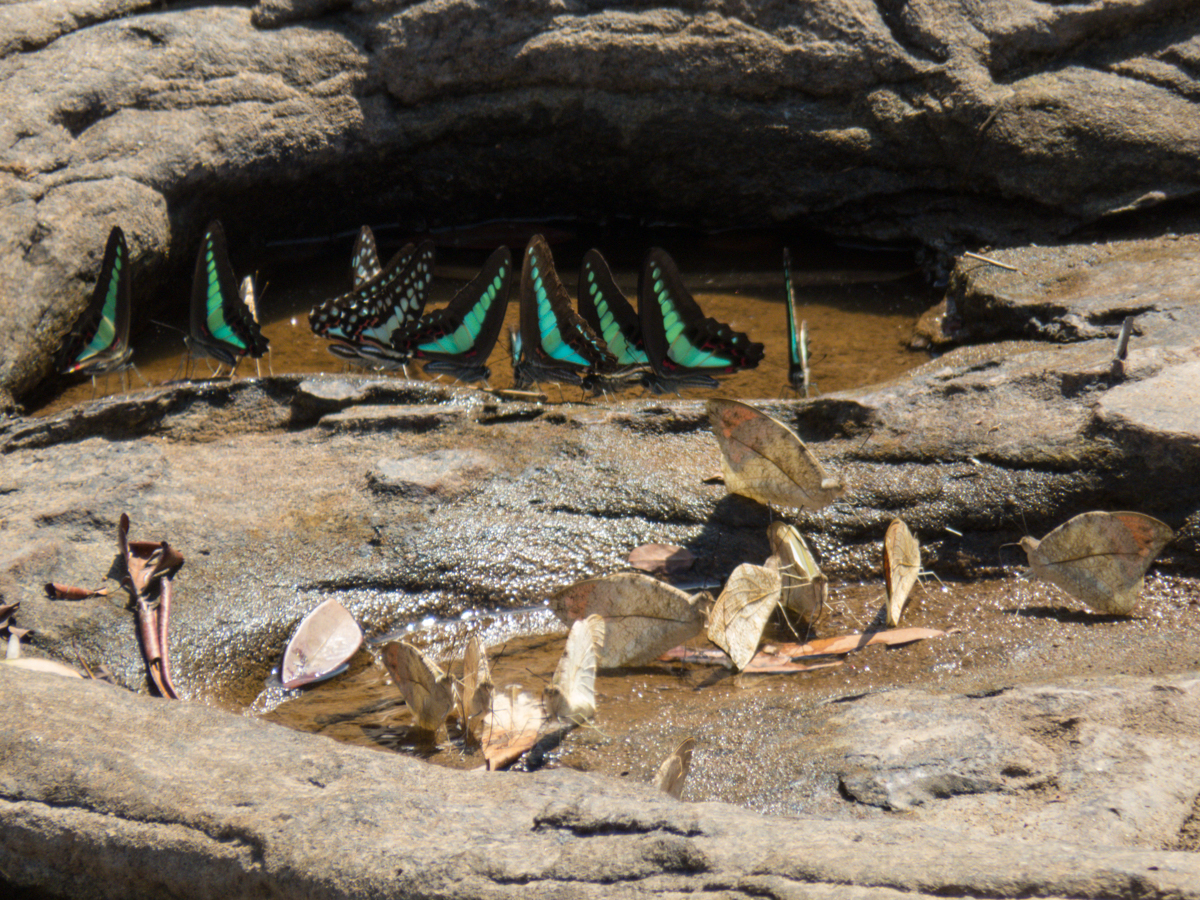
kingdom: Animalia
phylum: Arthropoda
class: Insecta
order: Lepidoptera
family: Pieridae
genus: Hebomoia
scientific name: Hebomoia glaucippe
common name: Great orange tip
